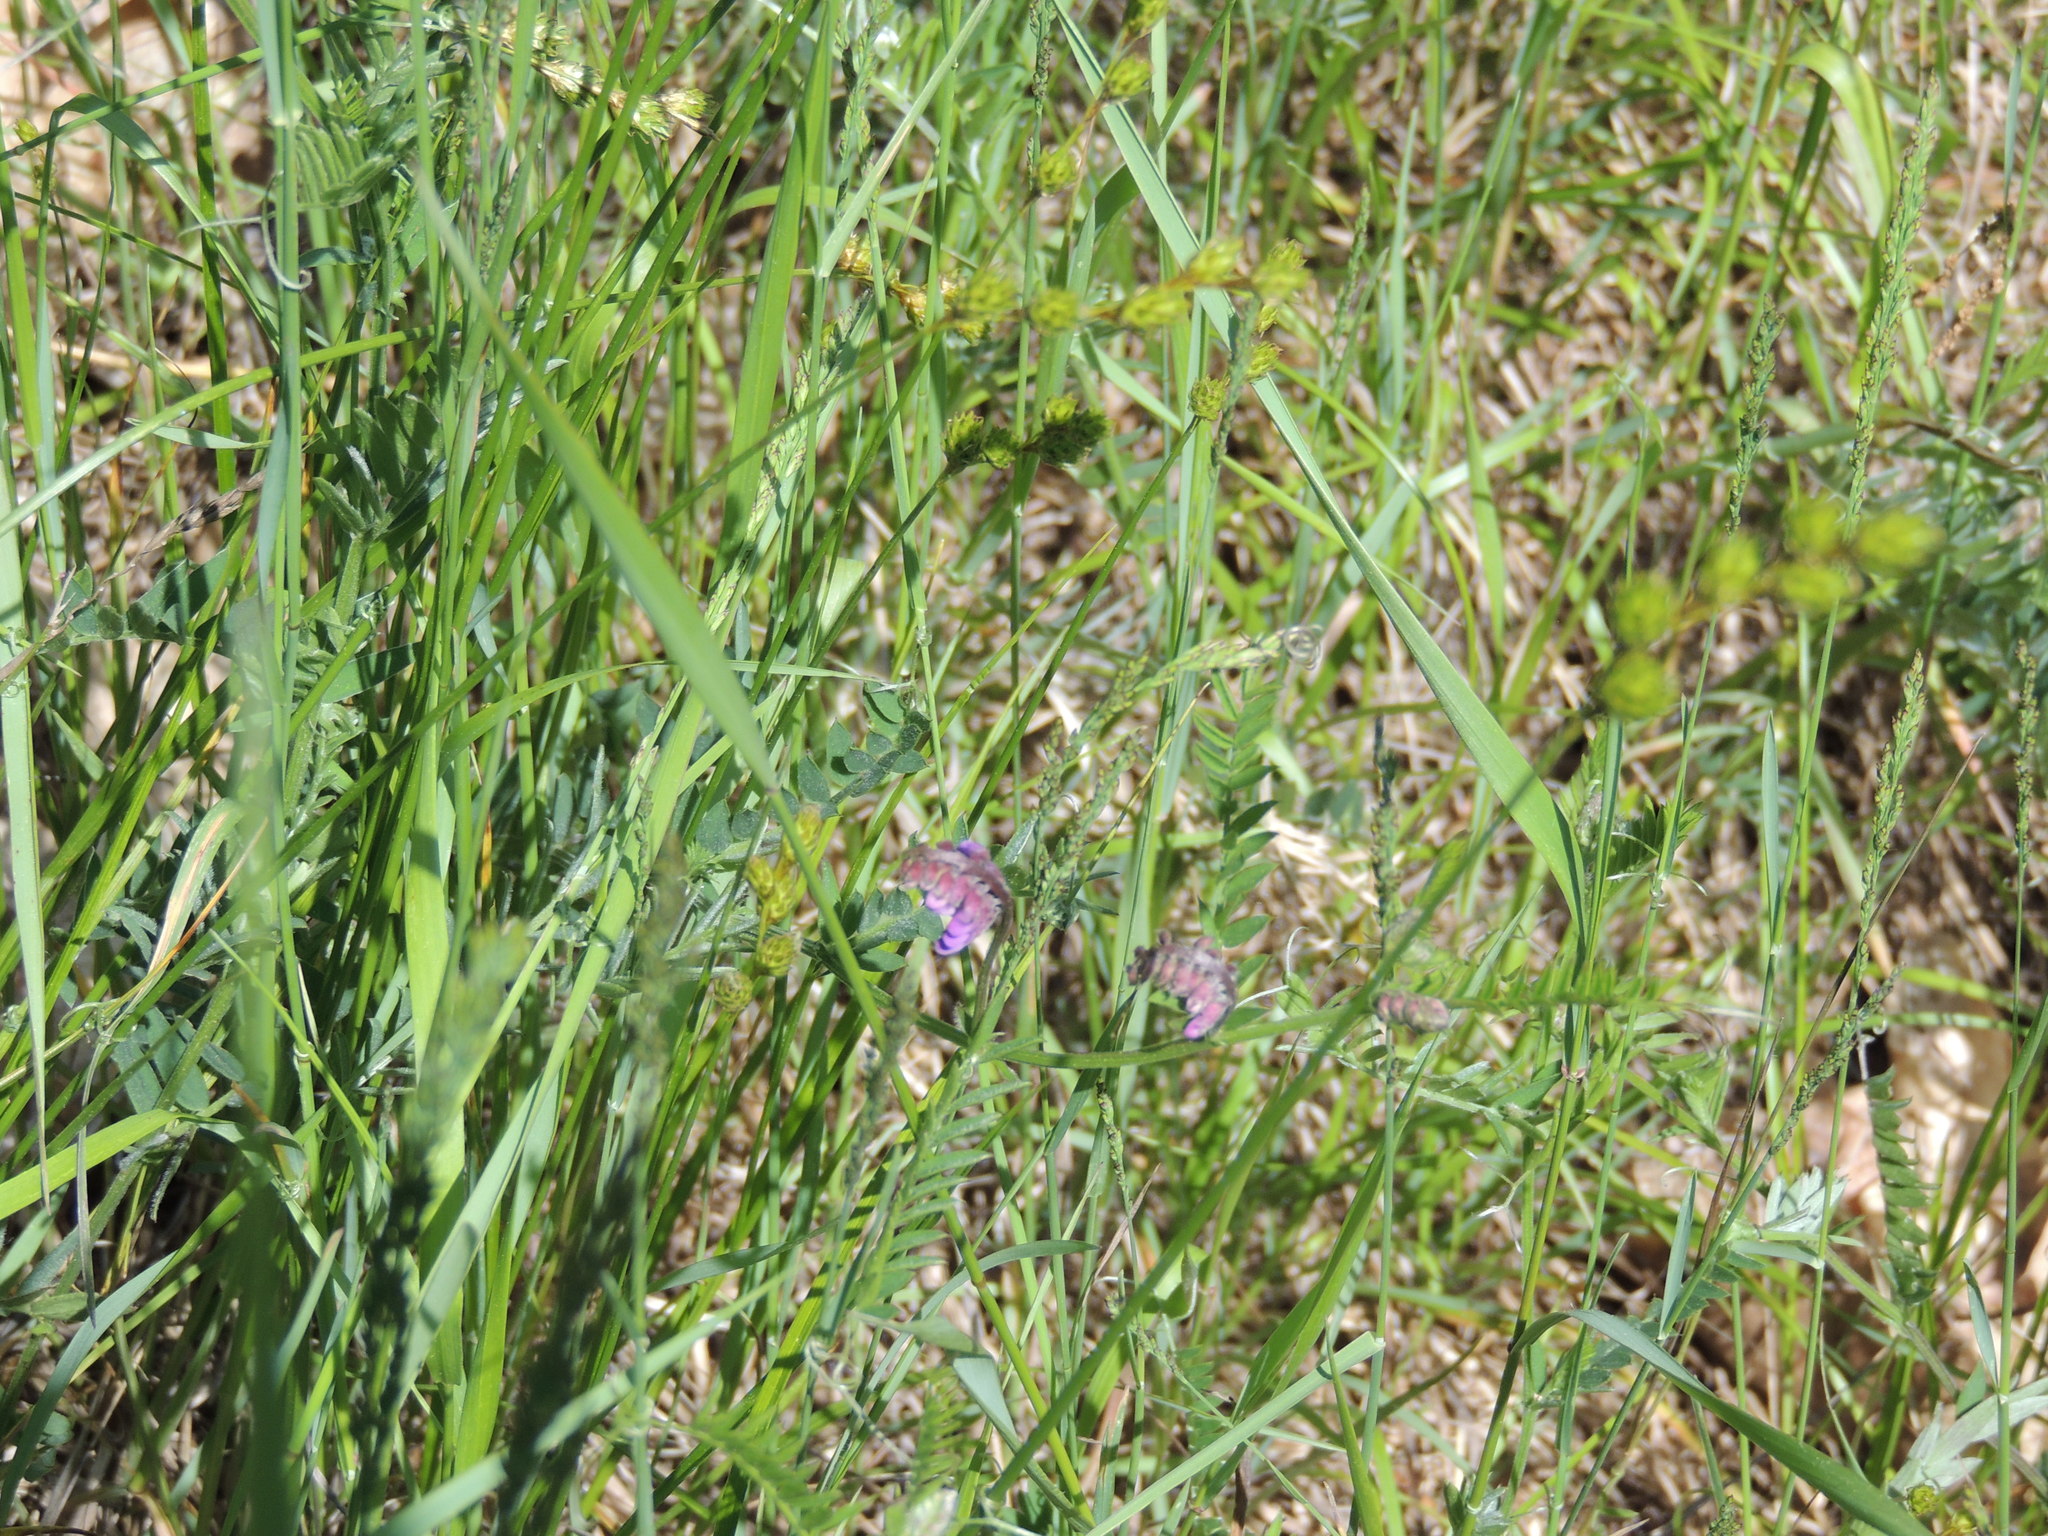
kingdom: Plantae
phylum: Tracheophyta
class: Magnoliopsida
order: Fabales
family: Fabaceae
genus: Vicia
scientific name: Vicia cracca
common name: Bird vetch
